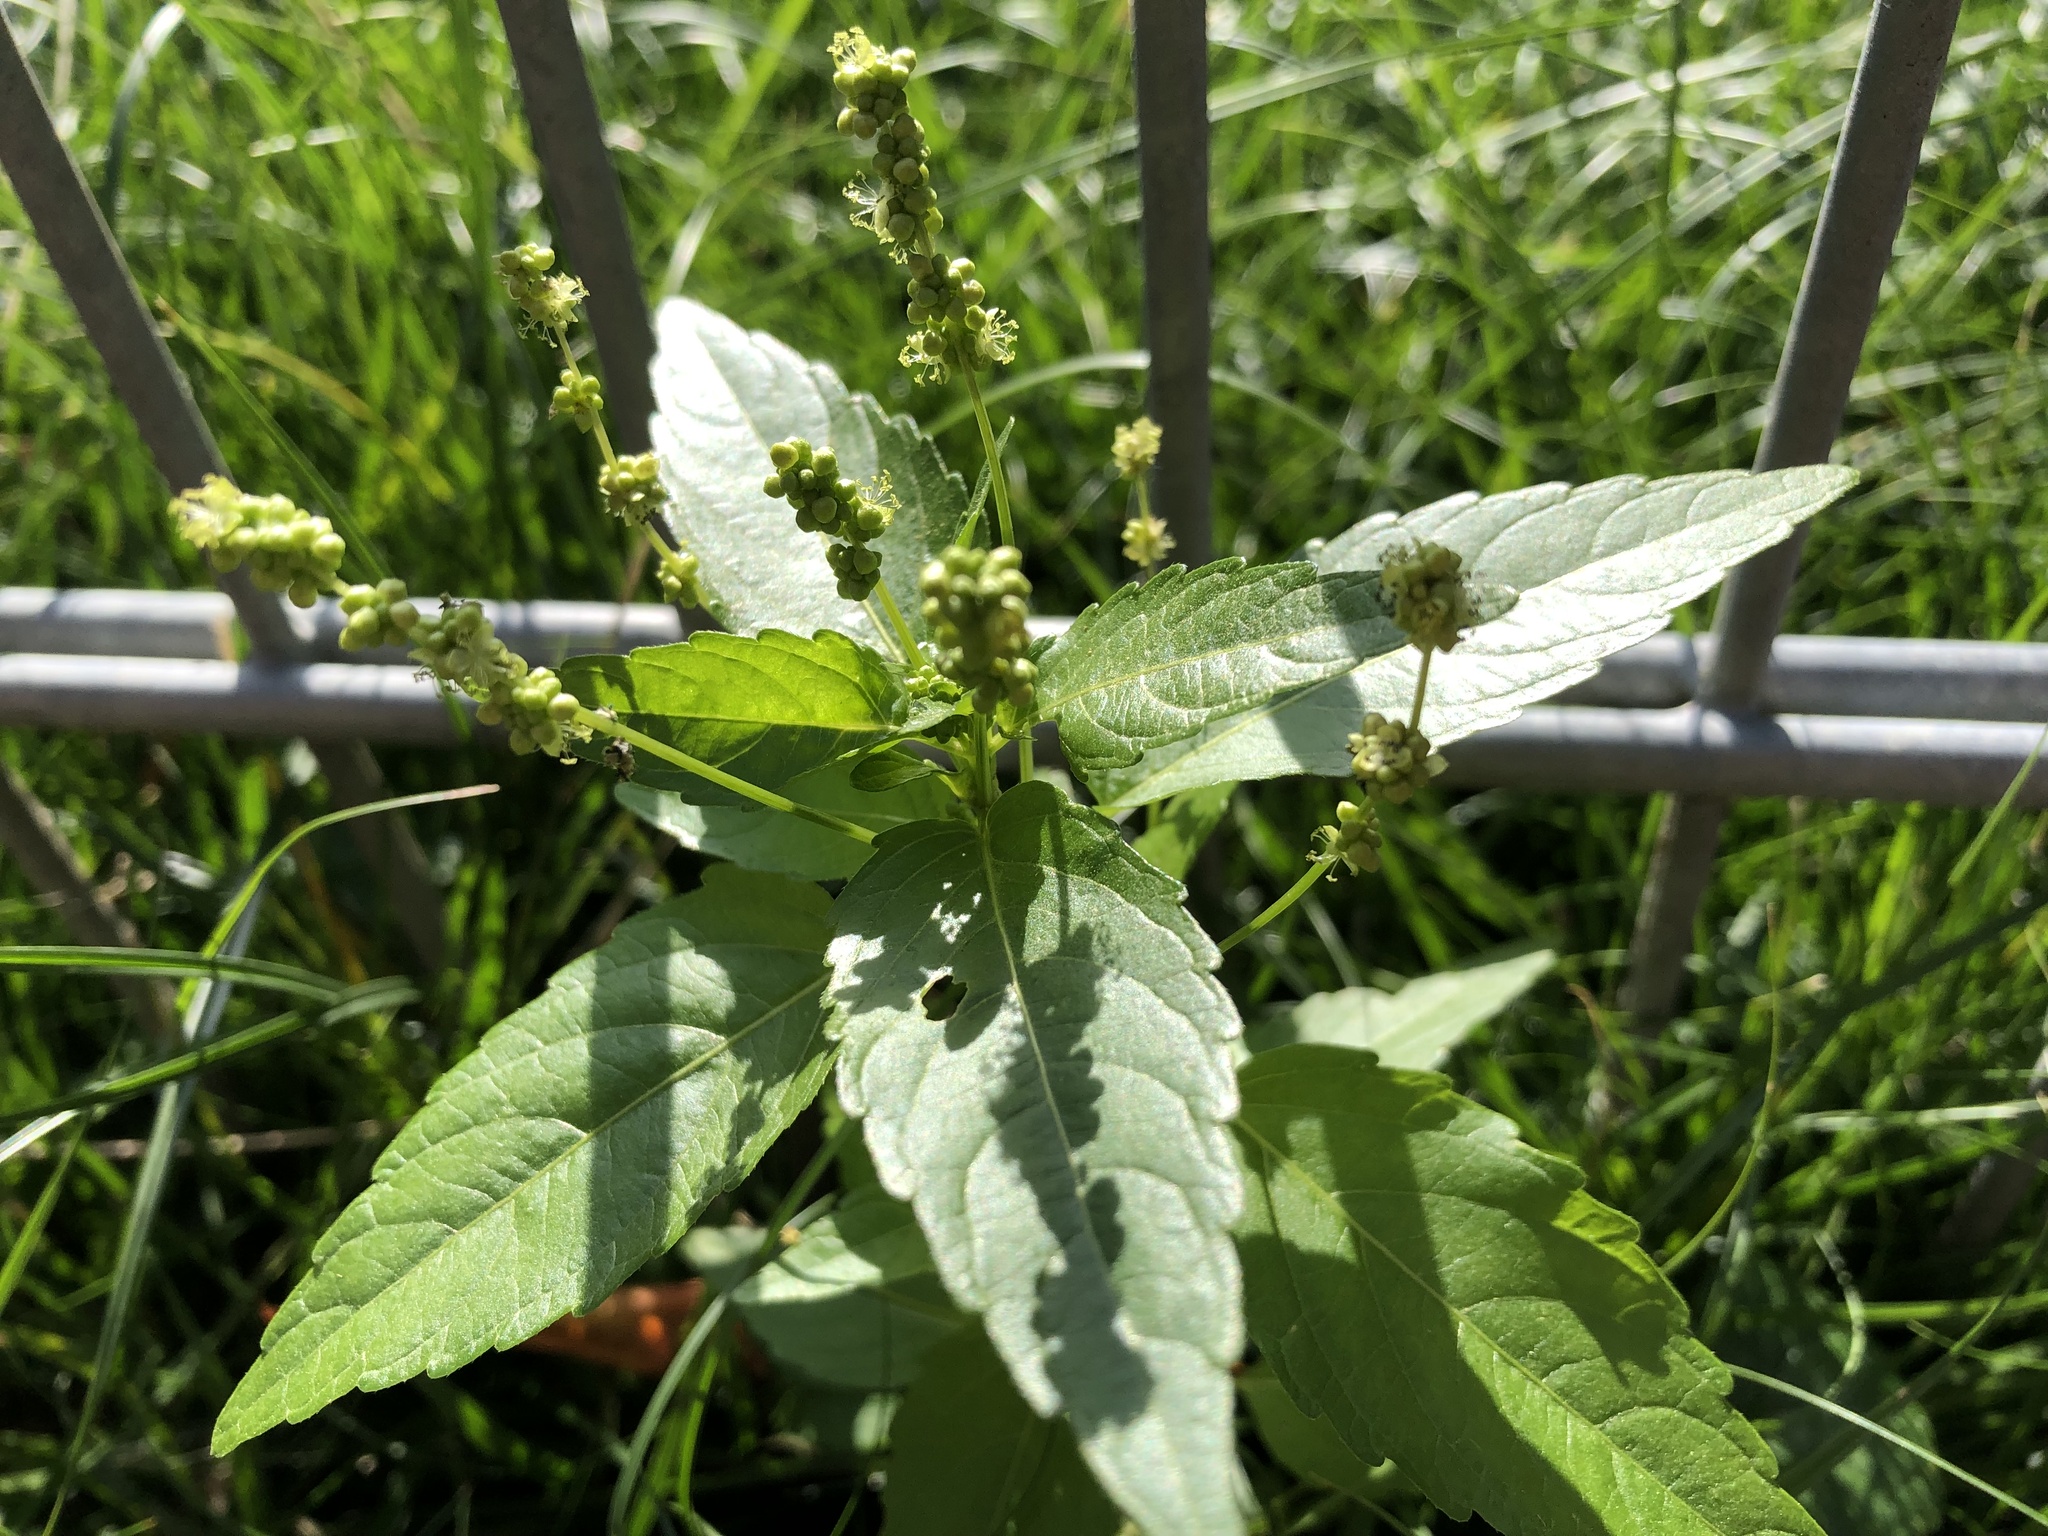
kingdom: Plantae
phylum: Tracheophyta
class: Magnoliopsida
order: Malpighiales
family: Euphorbiaceae
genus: Mercurialis
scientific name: Mercurialis annua
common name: Annual mercury
